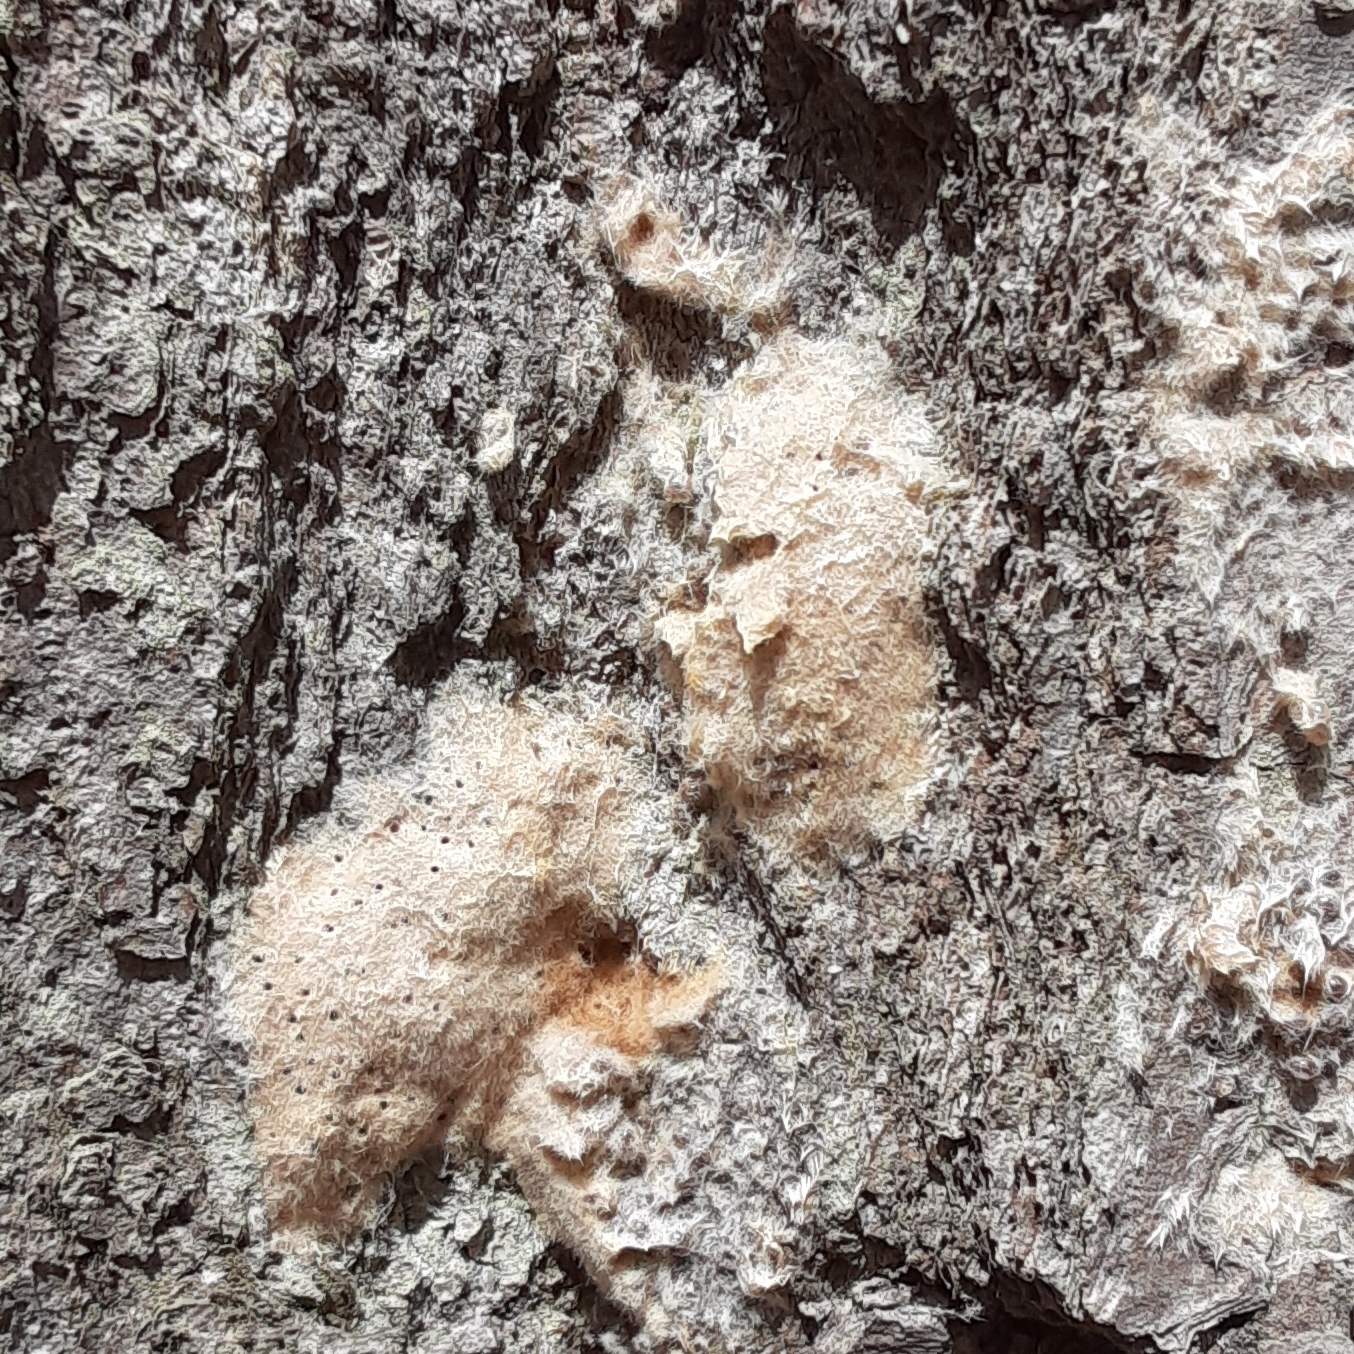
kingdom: Animalia
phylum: Arthropoda
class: Insecta
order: Lepidoptera
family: Erebidae
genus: Lymantria
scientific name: Lymantria dispar
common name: Gypsy moth
